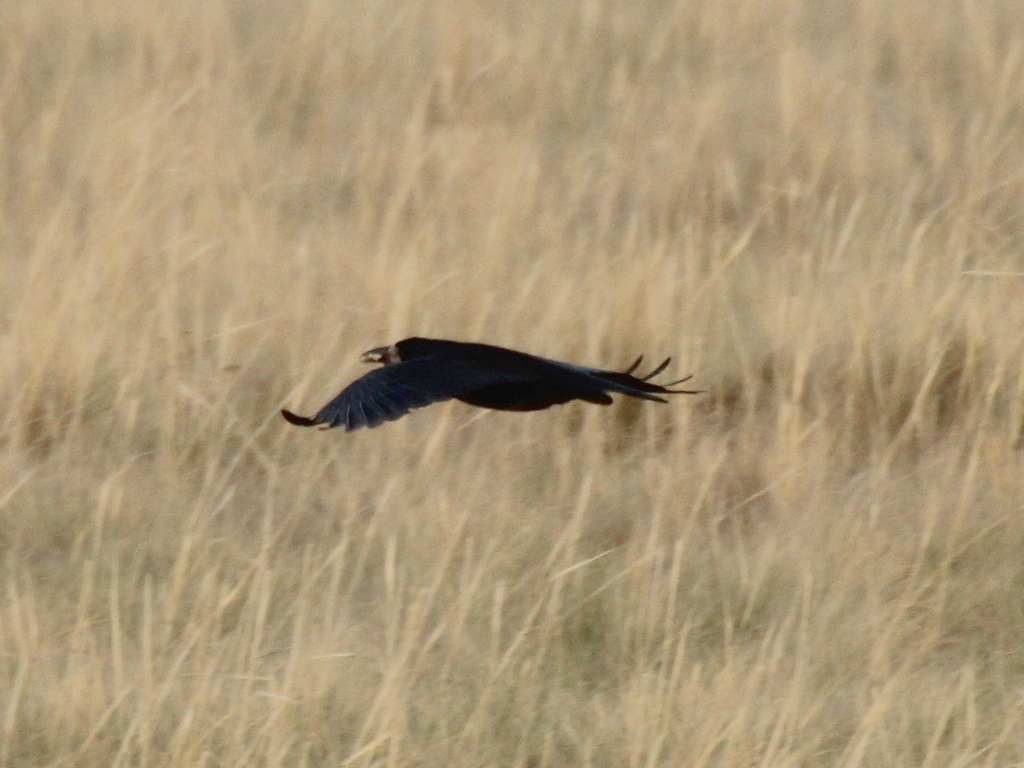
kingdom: Animalia
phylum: Chordata
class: Aves
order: Passeriformes
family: Corvidae
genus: Corvus
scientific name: Corvus frugilegus
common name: Rook
